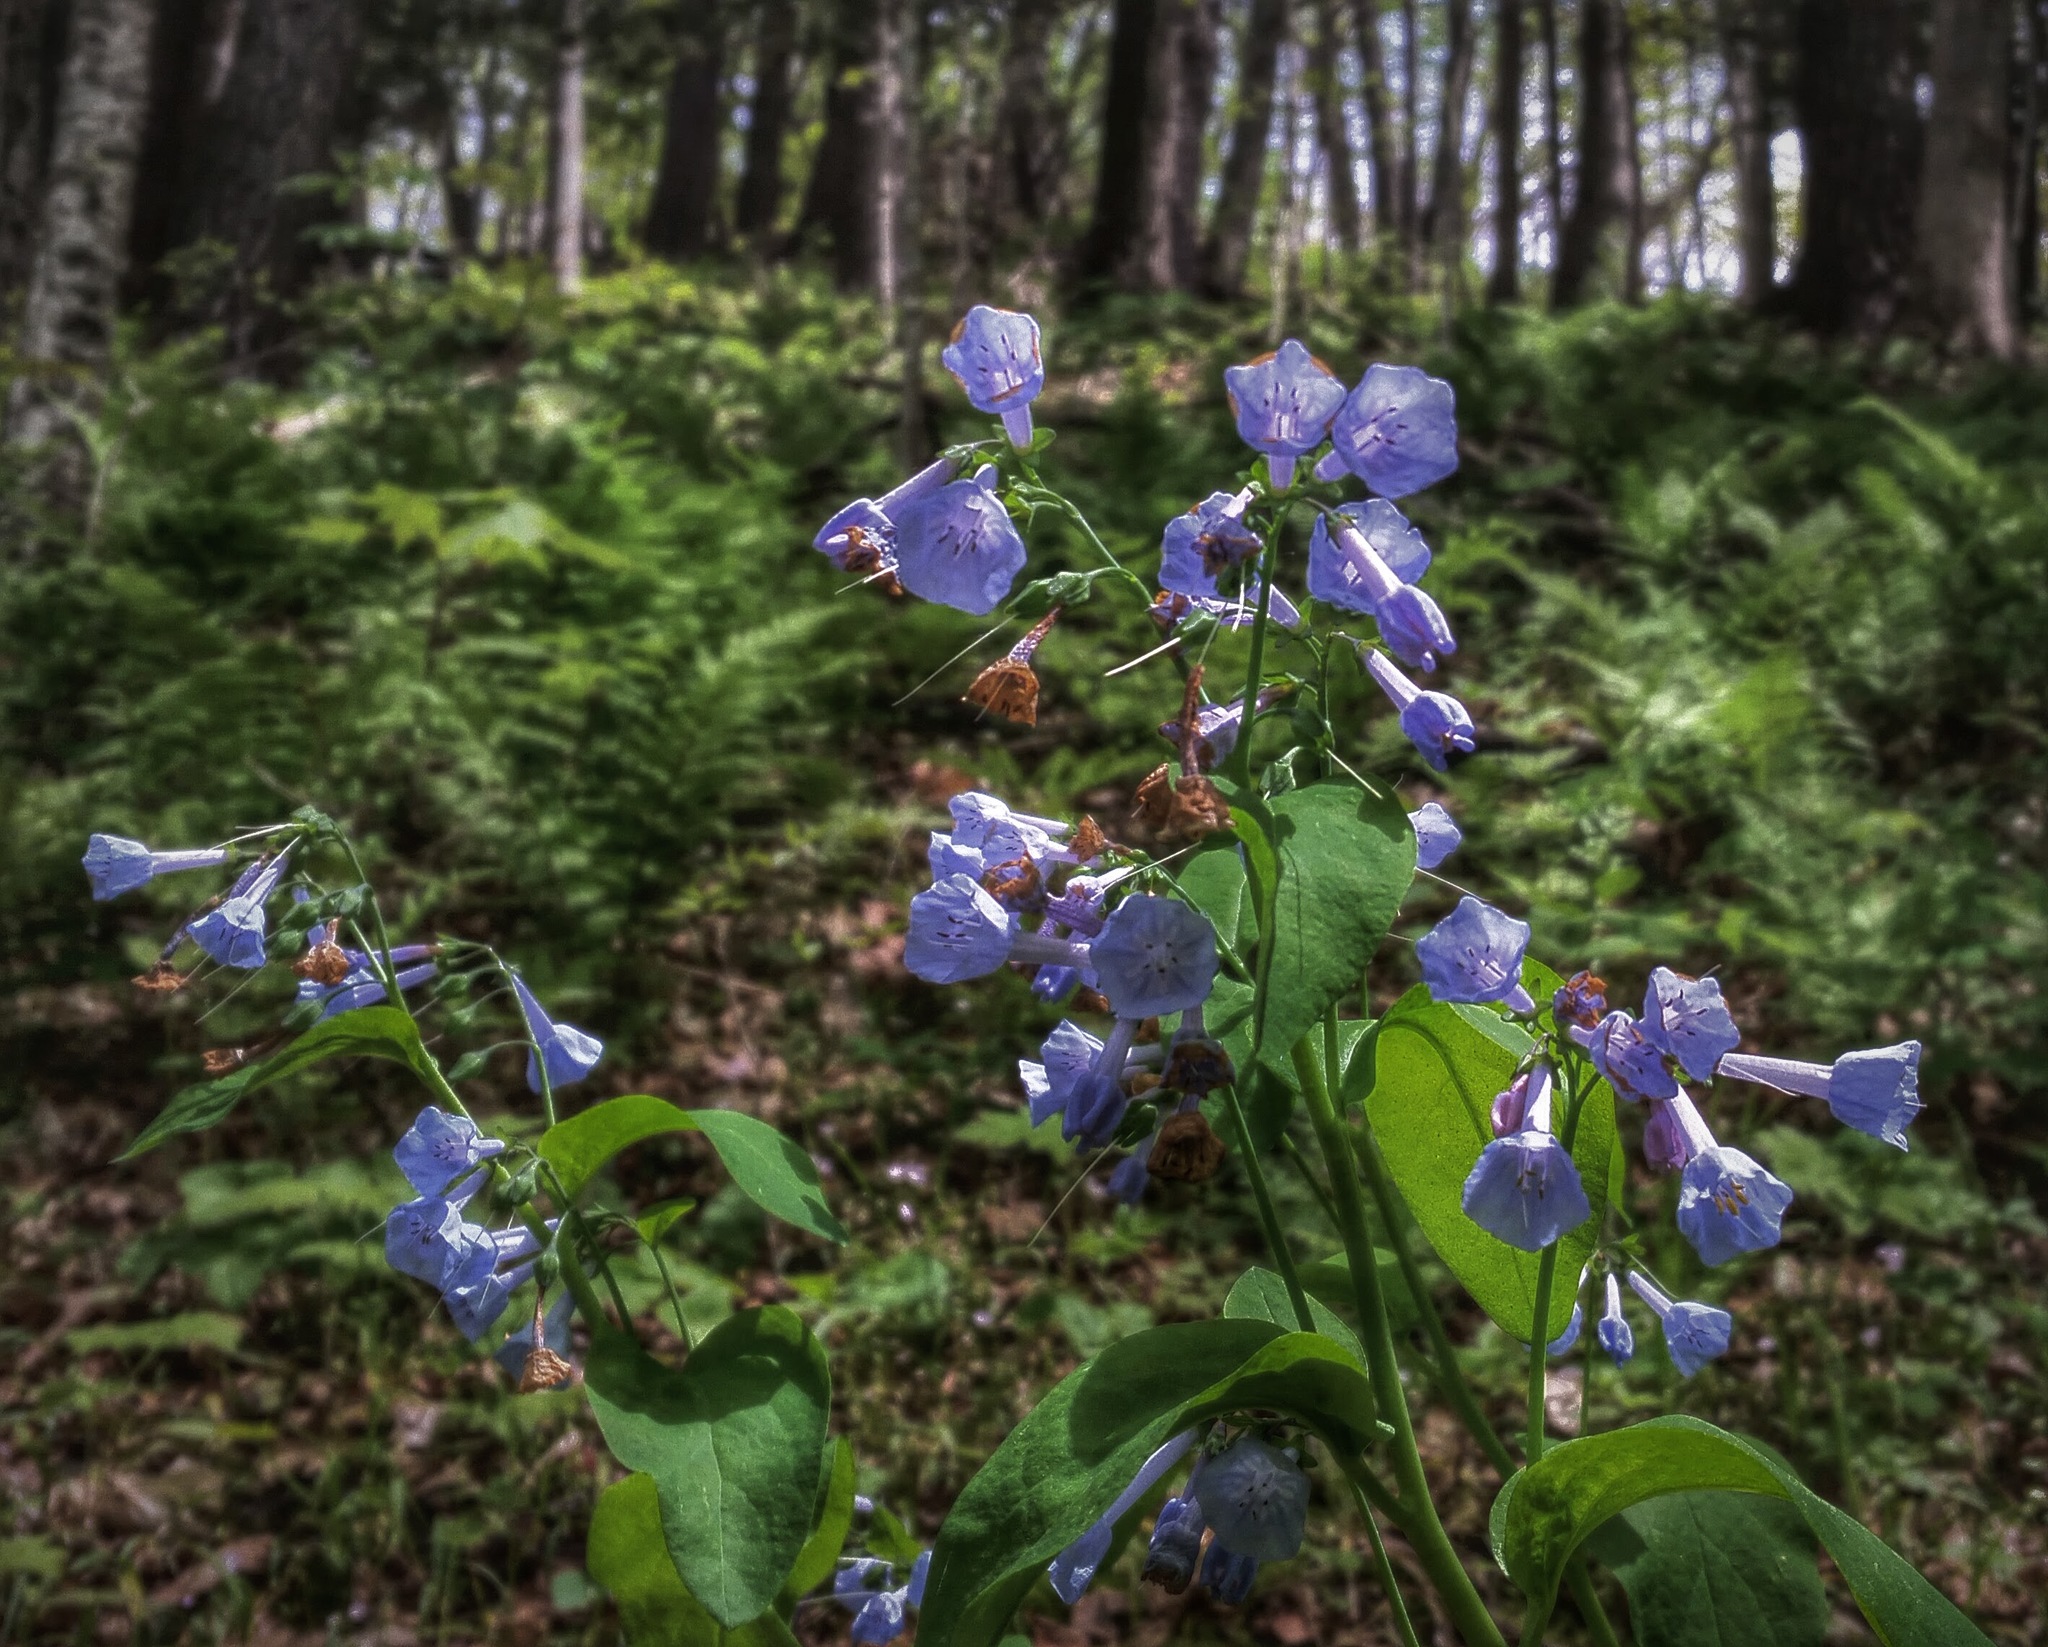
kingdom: Plantae
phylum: Tracheophyta
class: Magnoliopsida
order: Boraginales
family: Boraginaceae
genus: Mertensia
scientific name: Mertensia virginica
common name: Virginia bluebells
